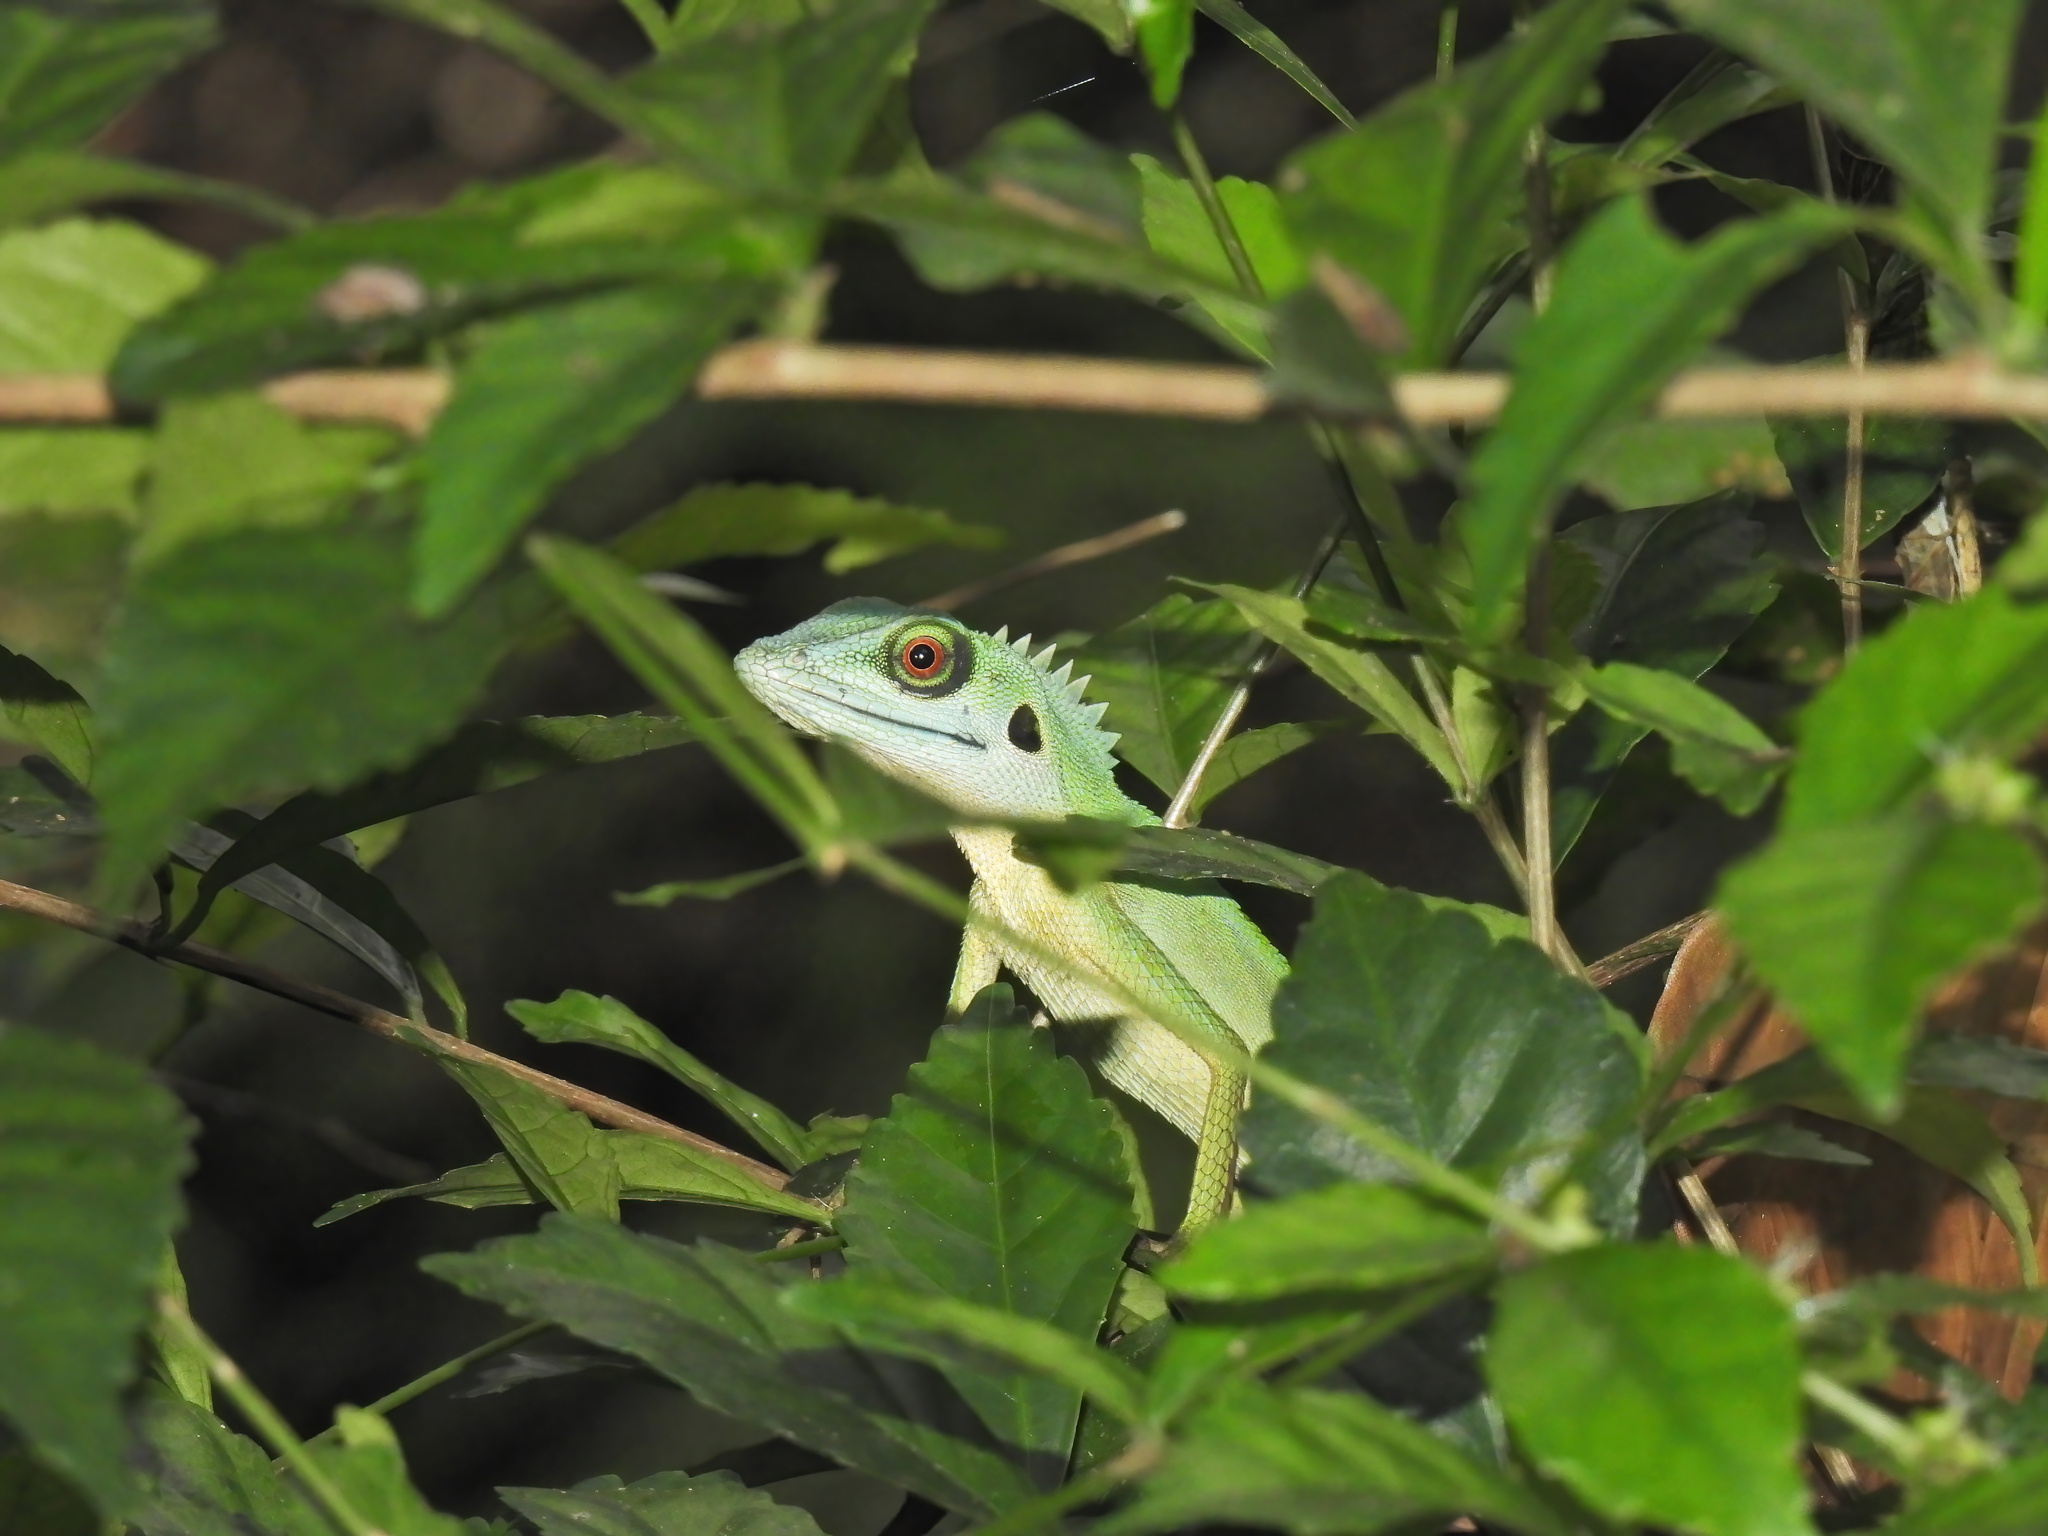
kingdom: Animalia
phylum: Chordata
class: Squamata
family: Agamidae
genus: Bronchocela
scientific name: Bronchocela cristatella
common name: Green crested lizard
